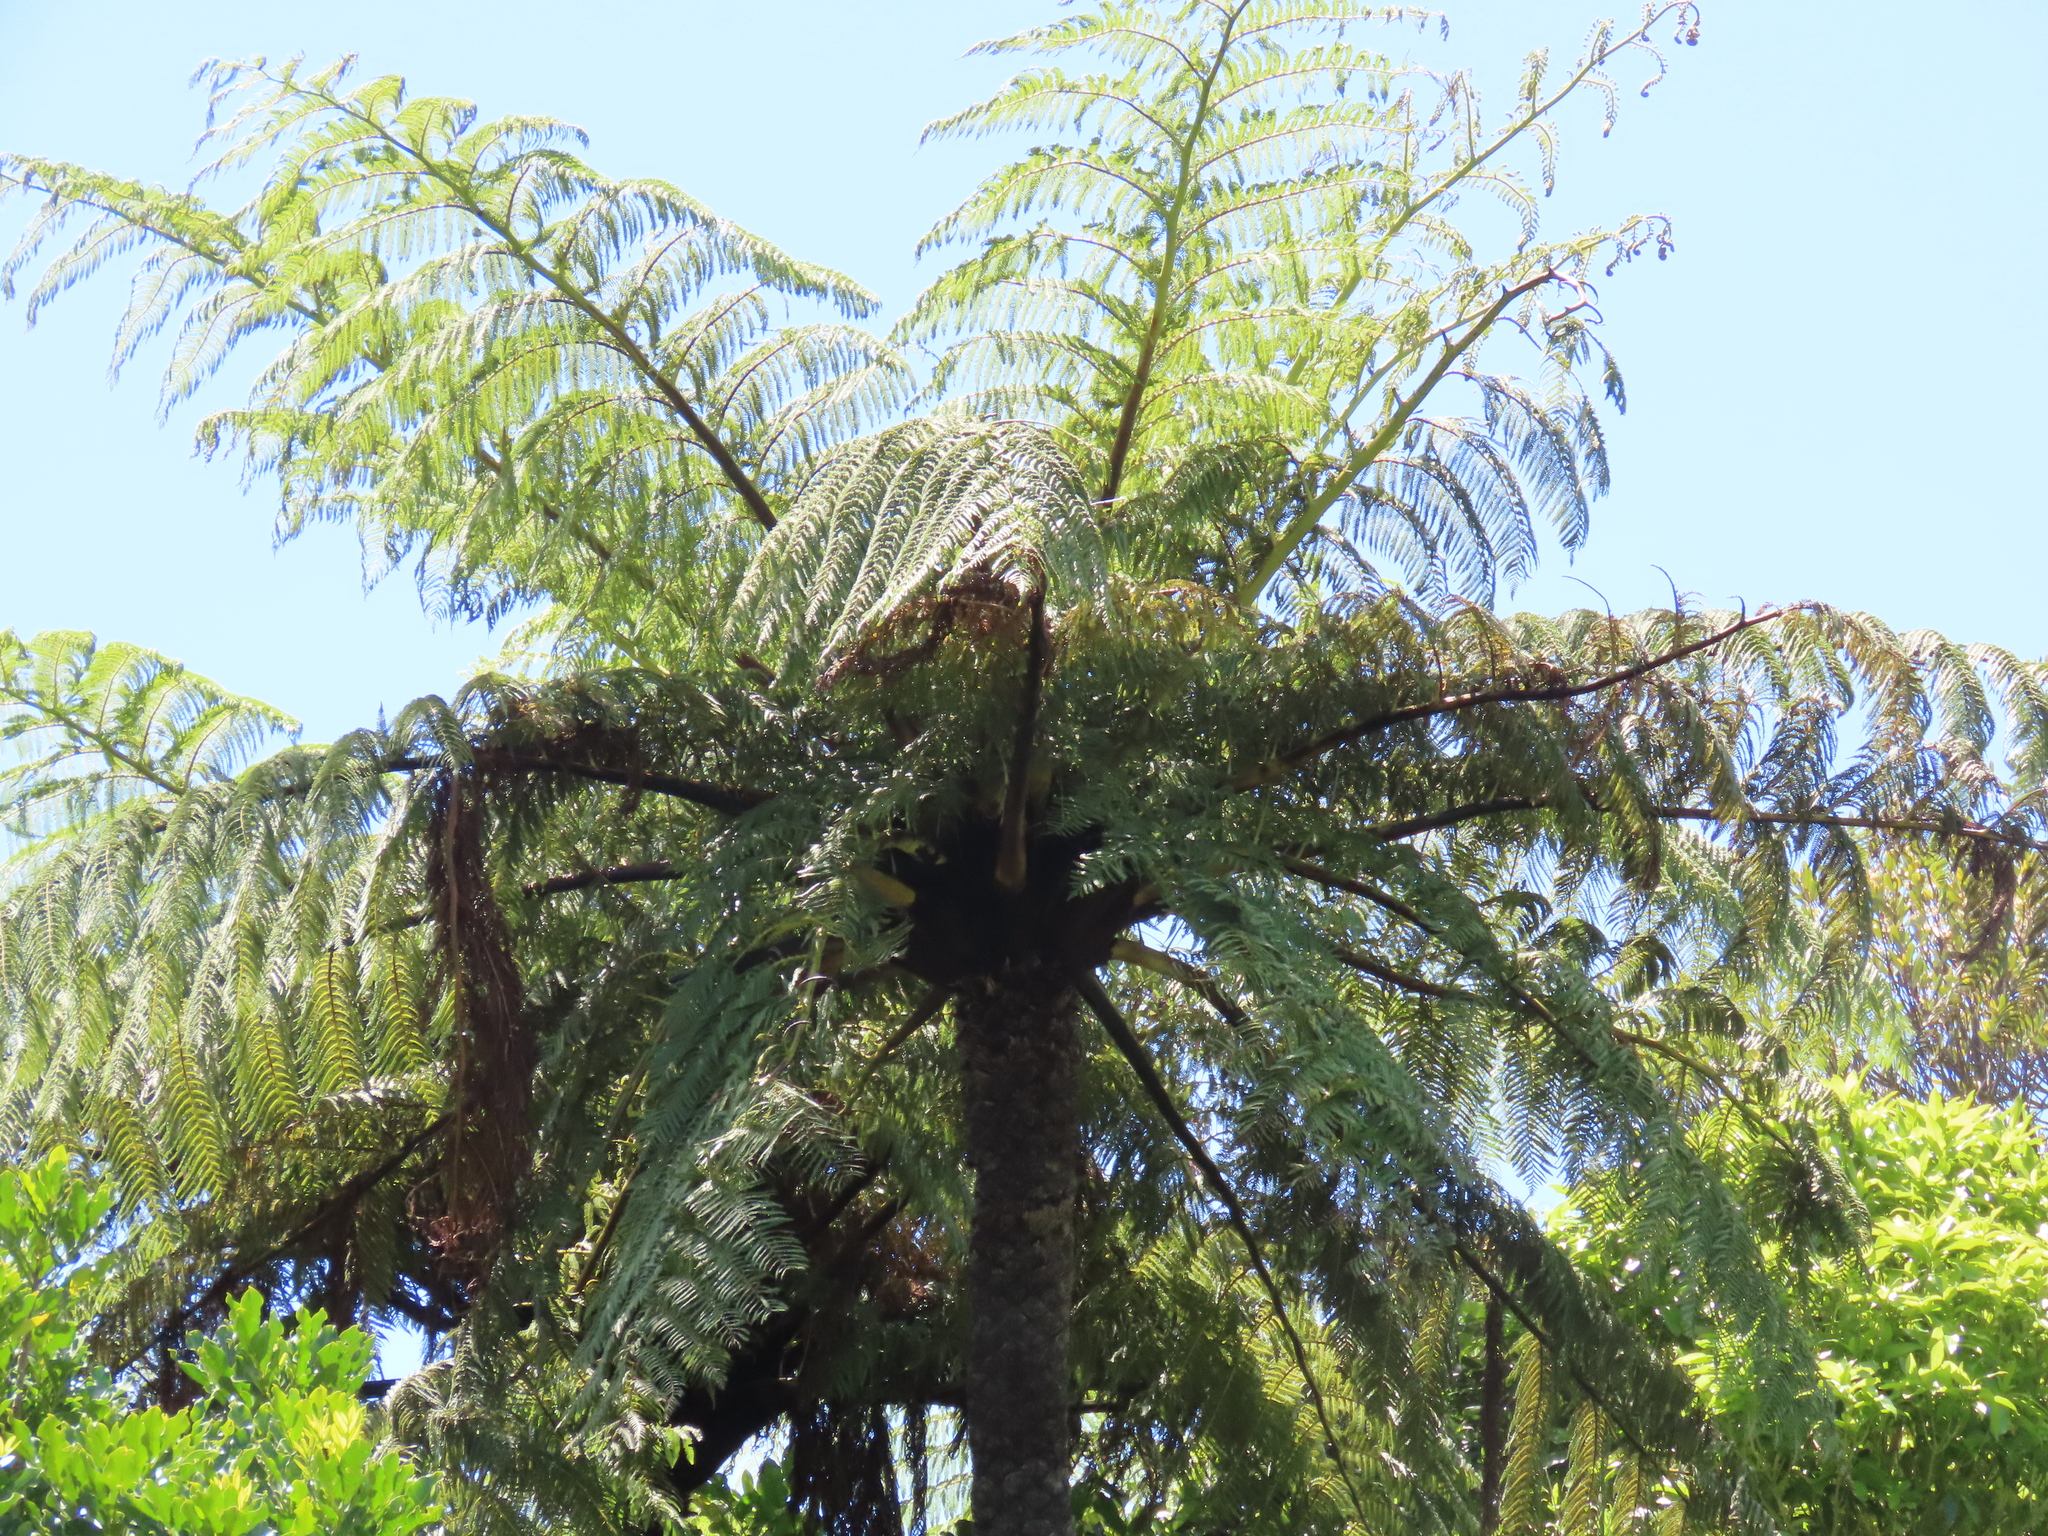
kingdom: Plantae
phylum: Tracheophyta
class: Polypodiopsida
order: Cyatheales
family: Cyatheaceae
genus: Sphaeropteris
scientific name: Sphaeropteris medullaris
